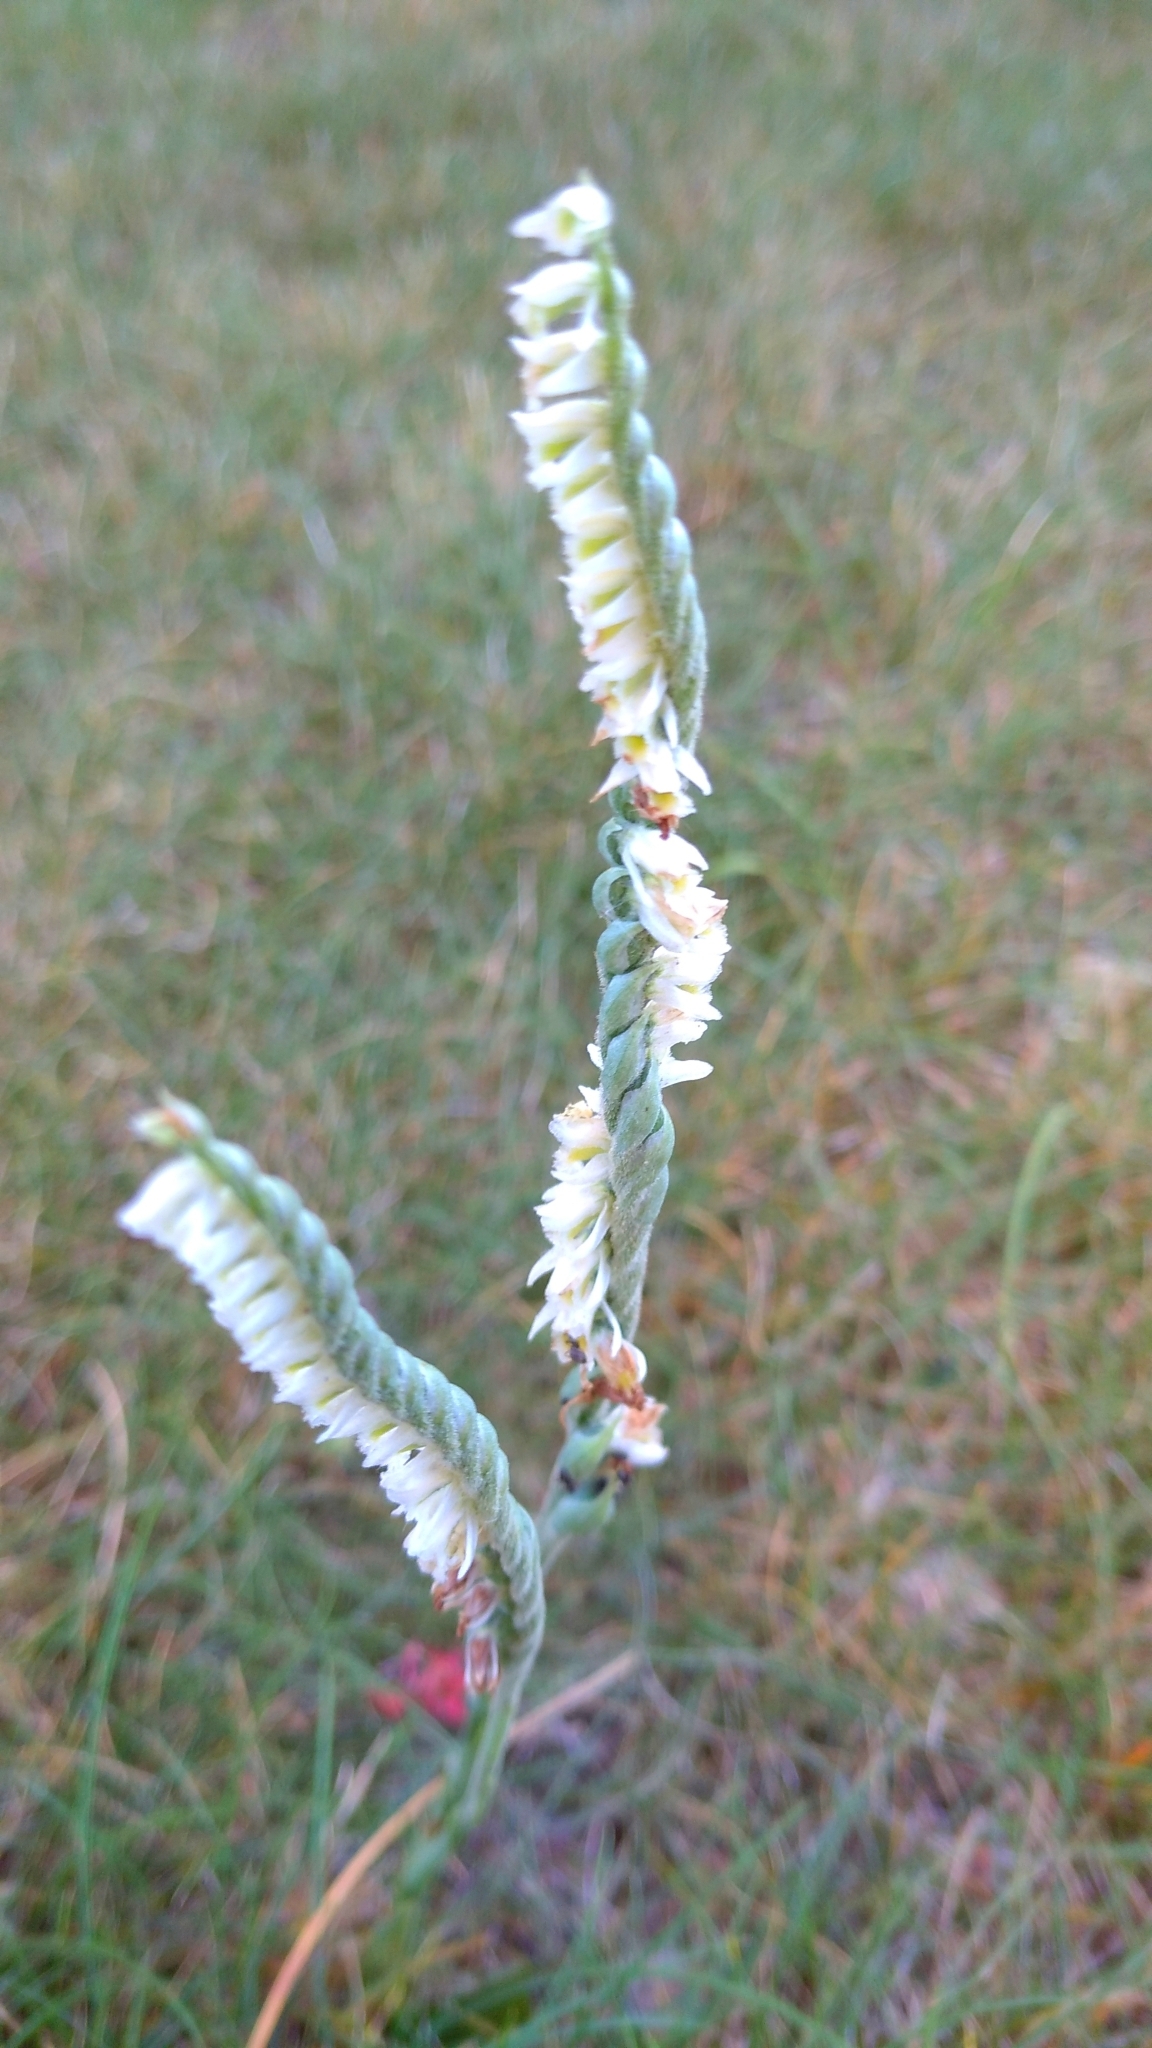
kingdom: Plantae
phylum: Tracheophyta
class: Liliopsida
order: Asparagales
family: Orchidaceae
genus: Spiranthes
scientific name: Spiranthes spiralis
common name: Autumn lady's-tresses
